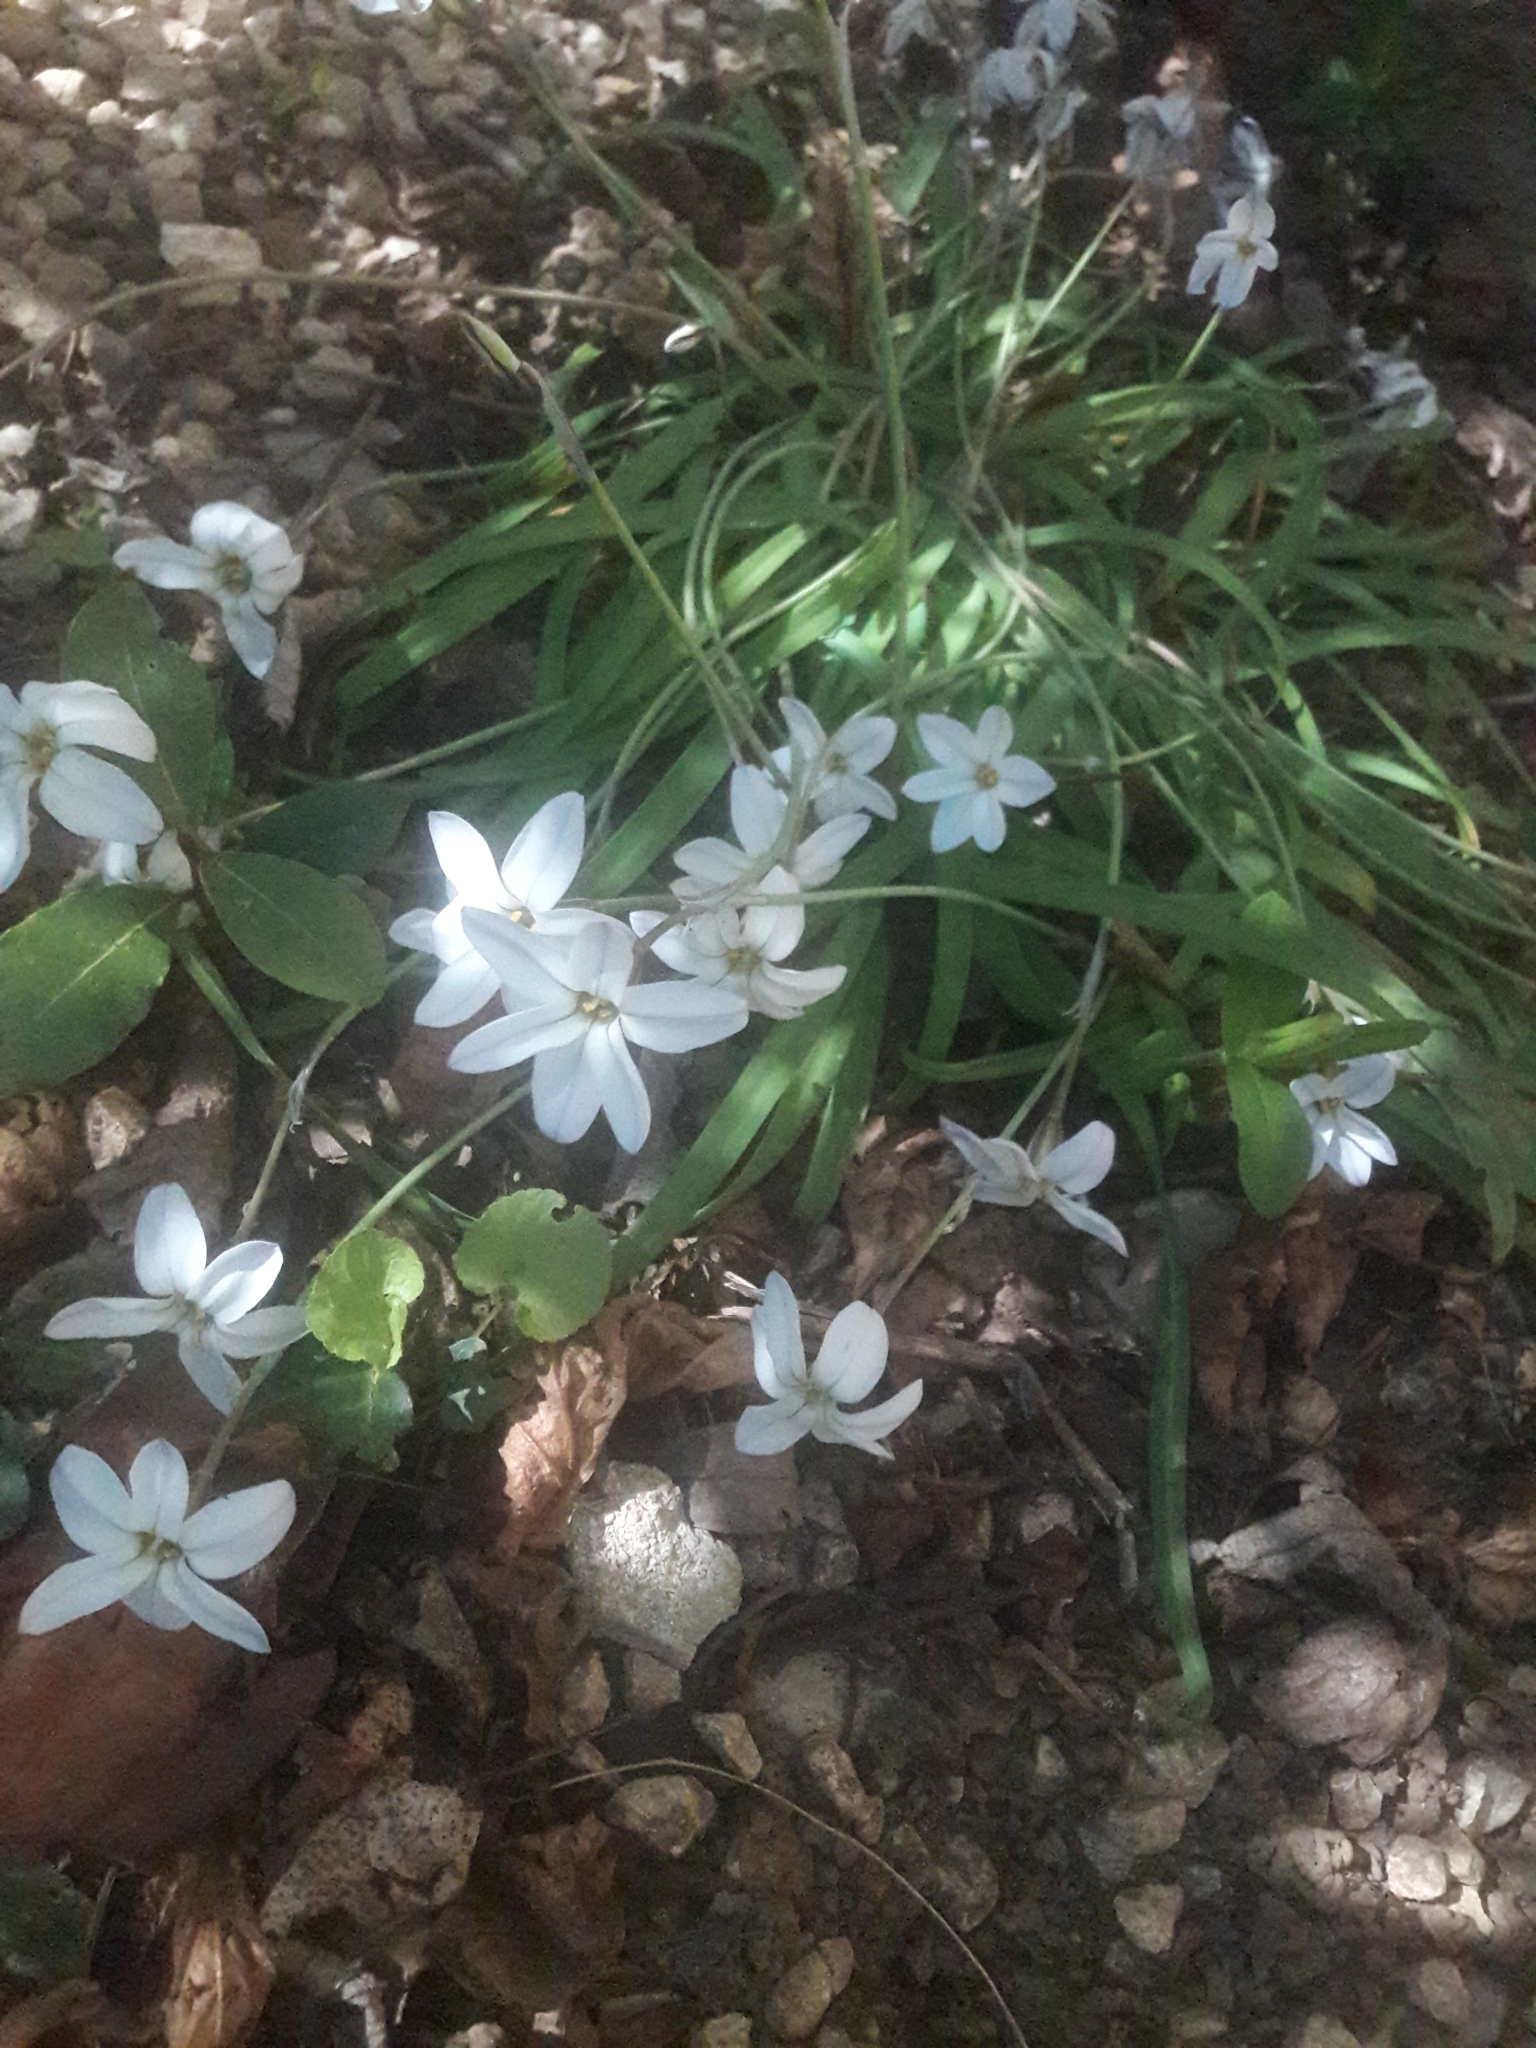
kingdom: Plantae
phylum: Tracheophyta
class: Liliopsida
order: Asparagales
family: Amaryllidaceae
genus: Ipheion
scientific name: Ipheion uniflorum
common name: Spring starflower
